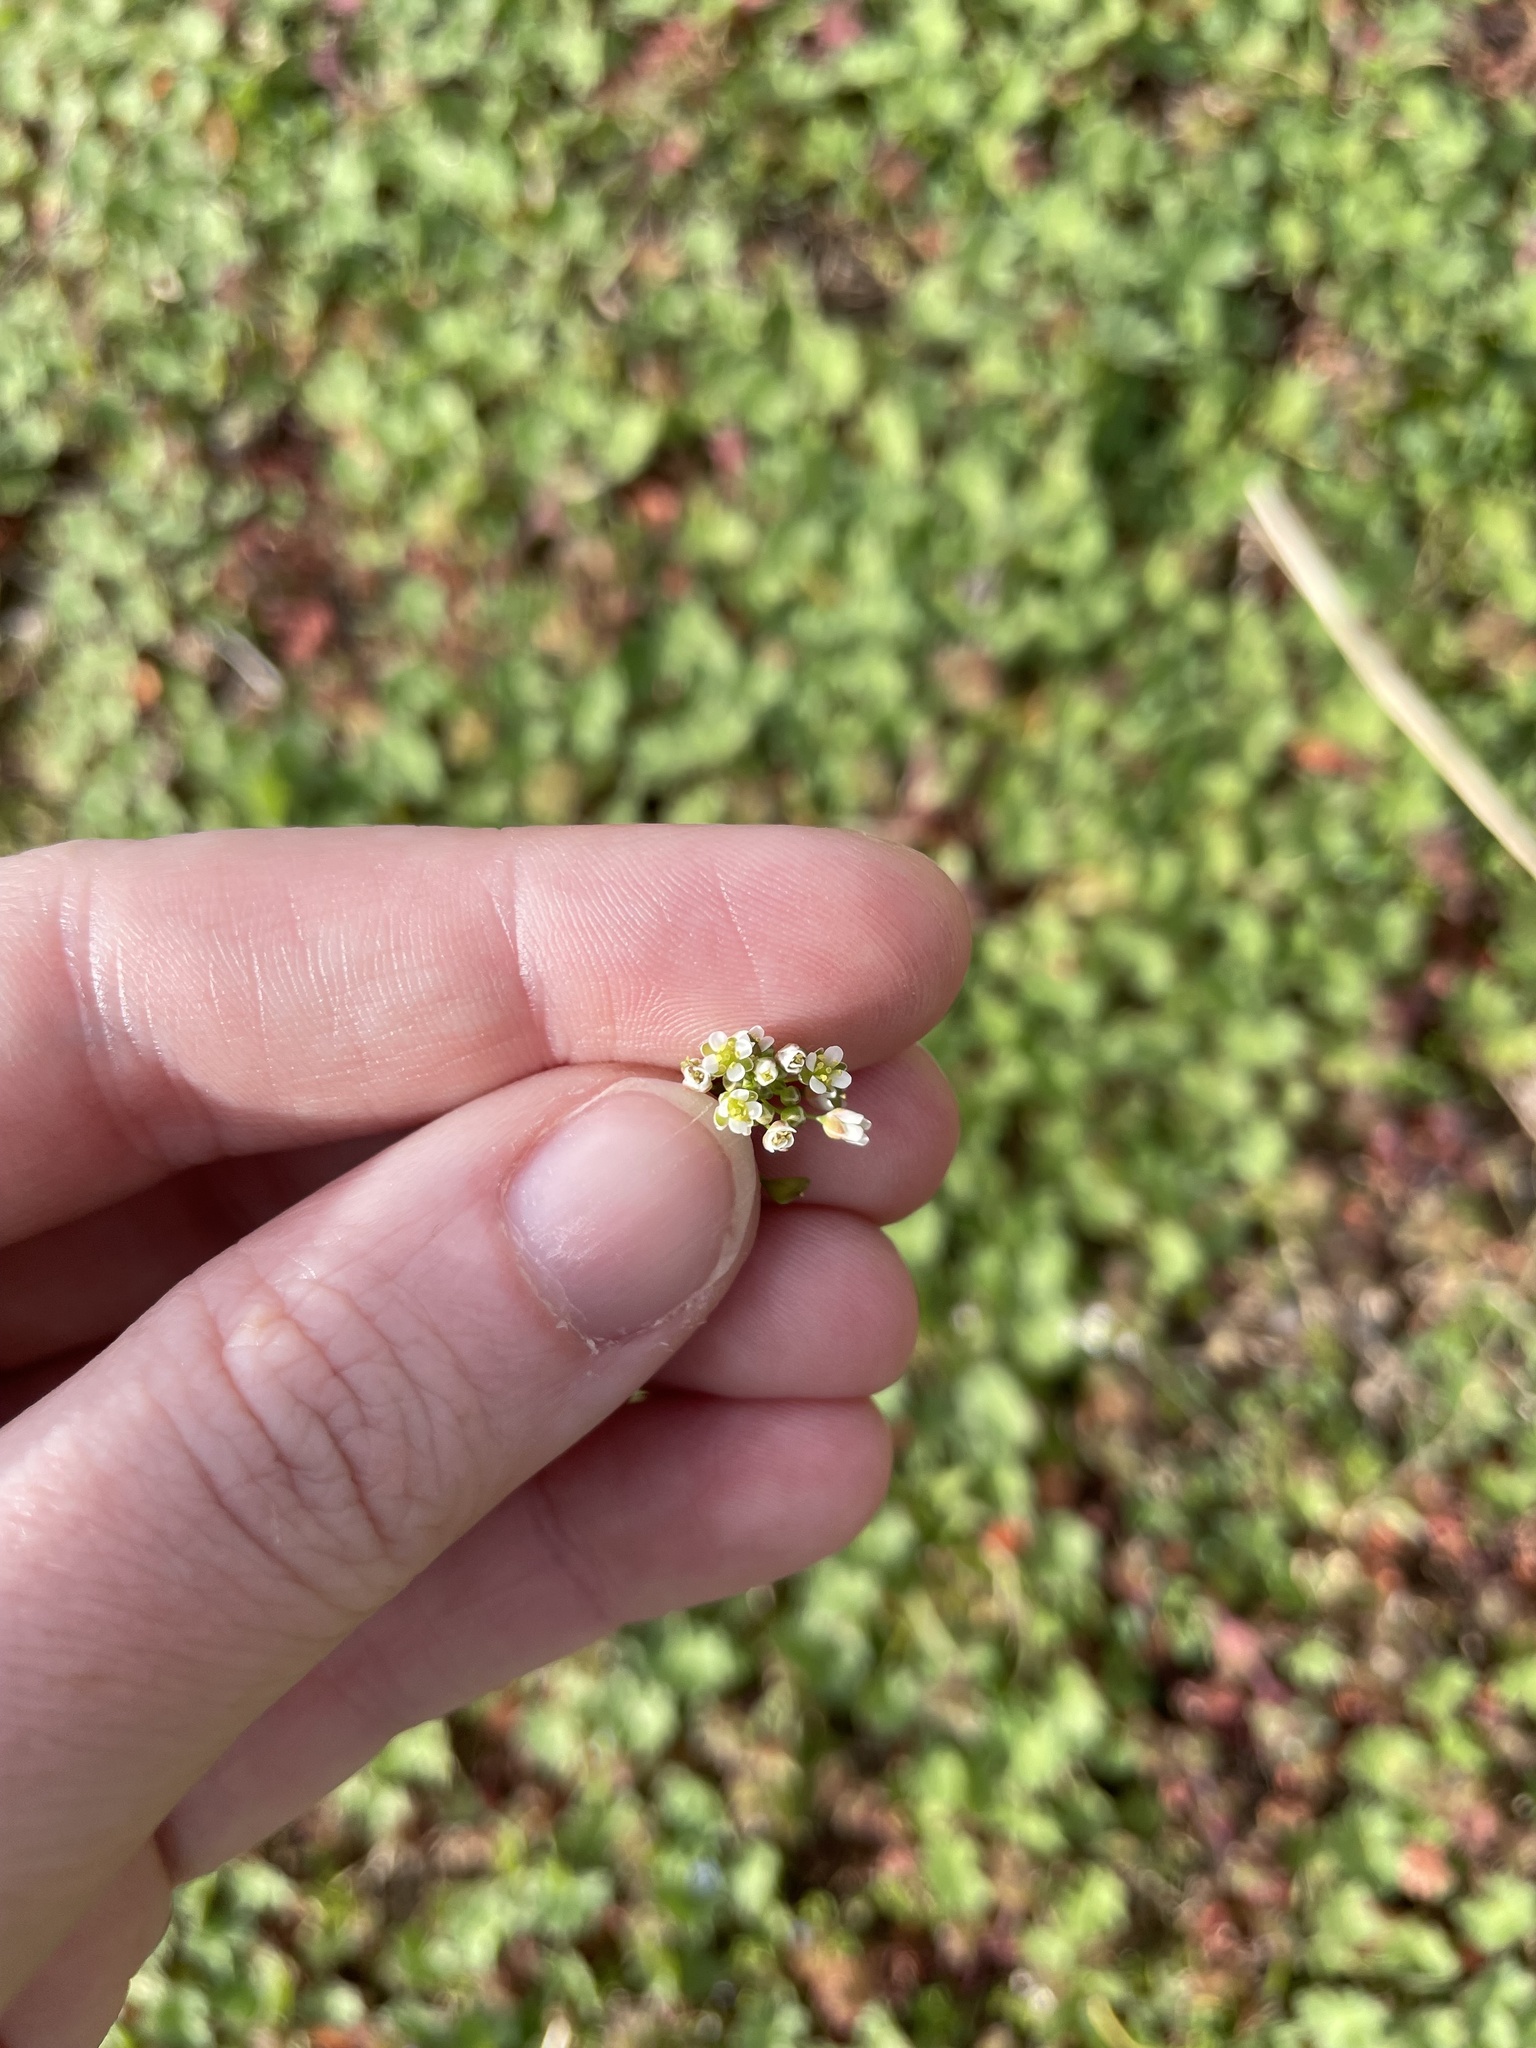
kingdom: Plantae
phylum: Tracheophyta
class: Magnoliopsida
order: Brassicales
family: Brassicaceae
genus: Capsella
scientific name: Capsella bursa-pastoris
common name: Shepherd's purse
